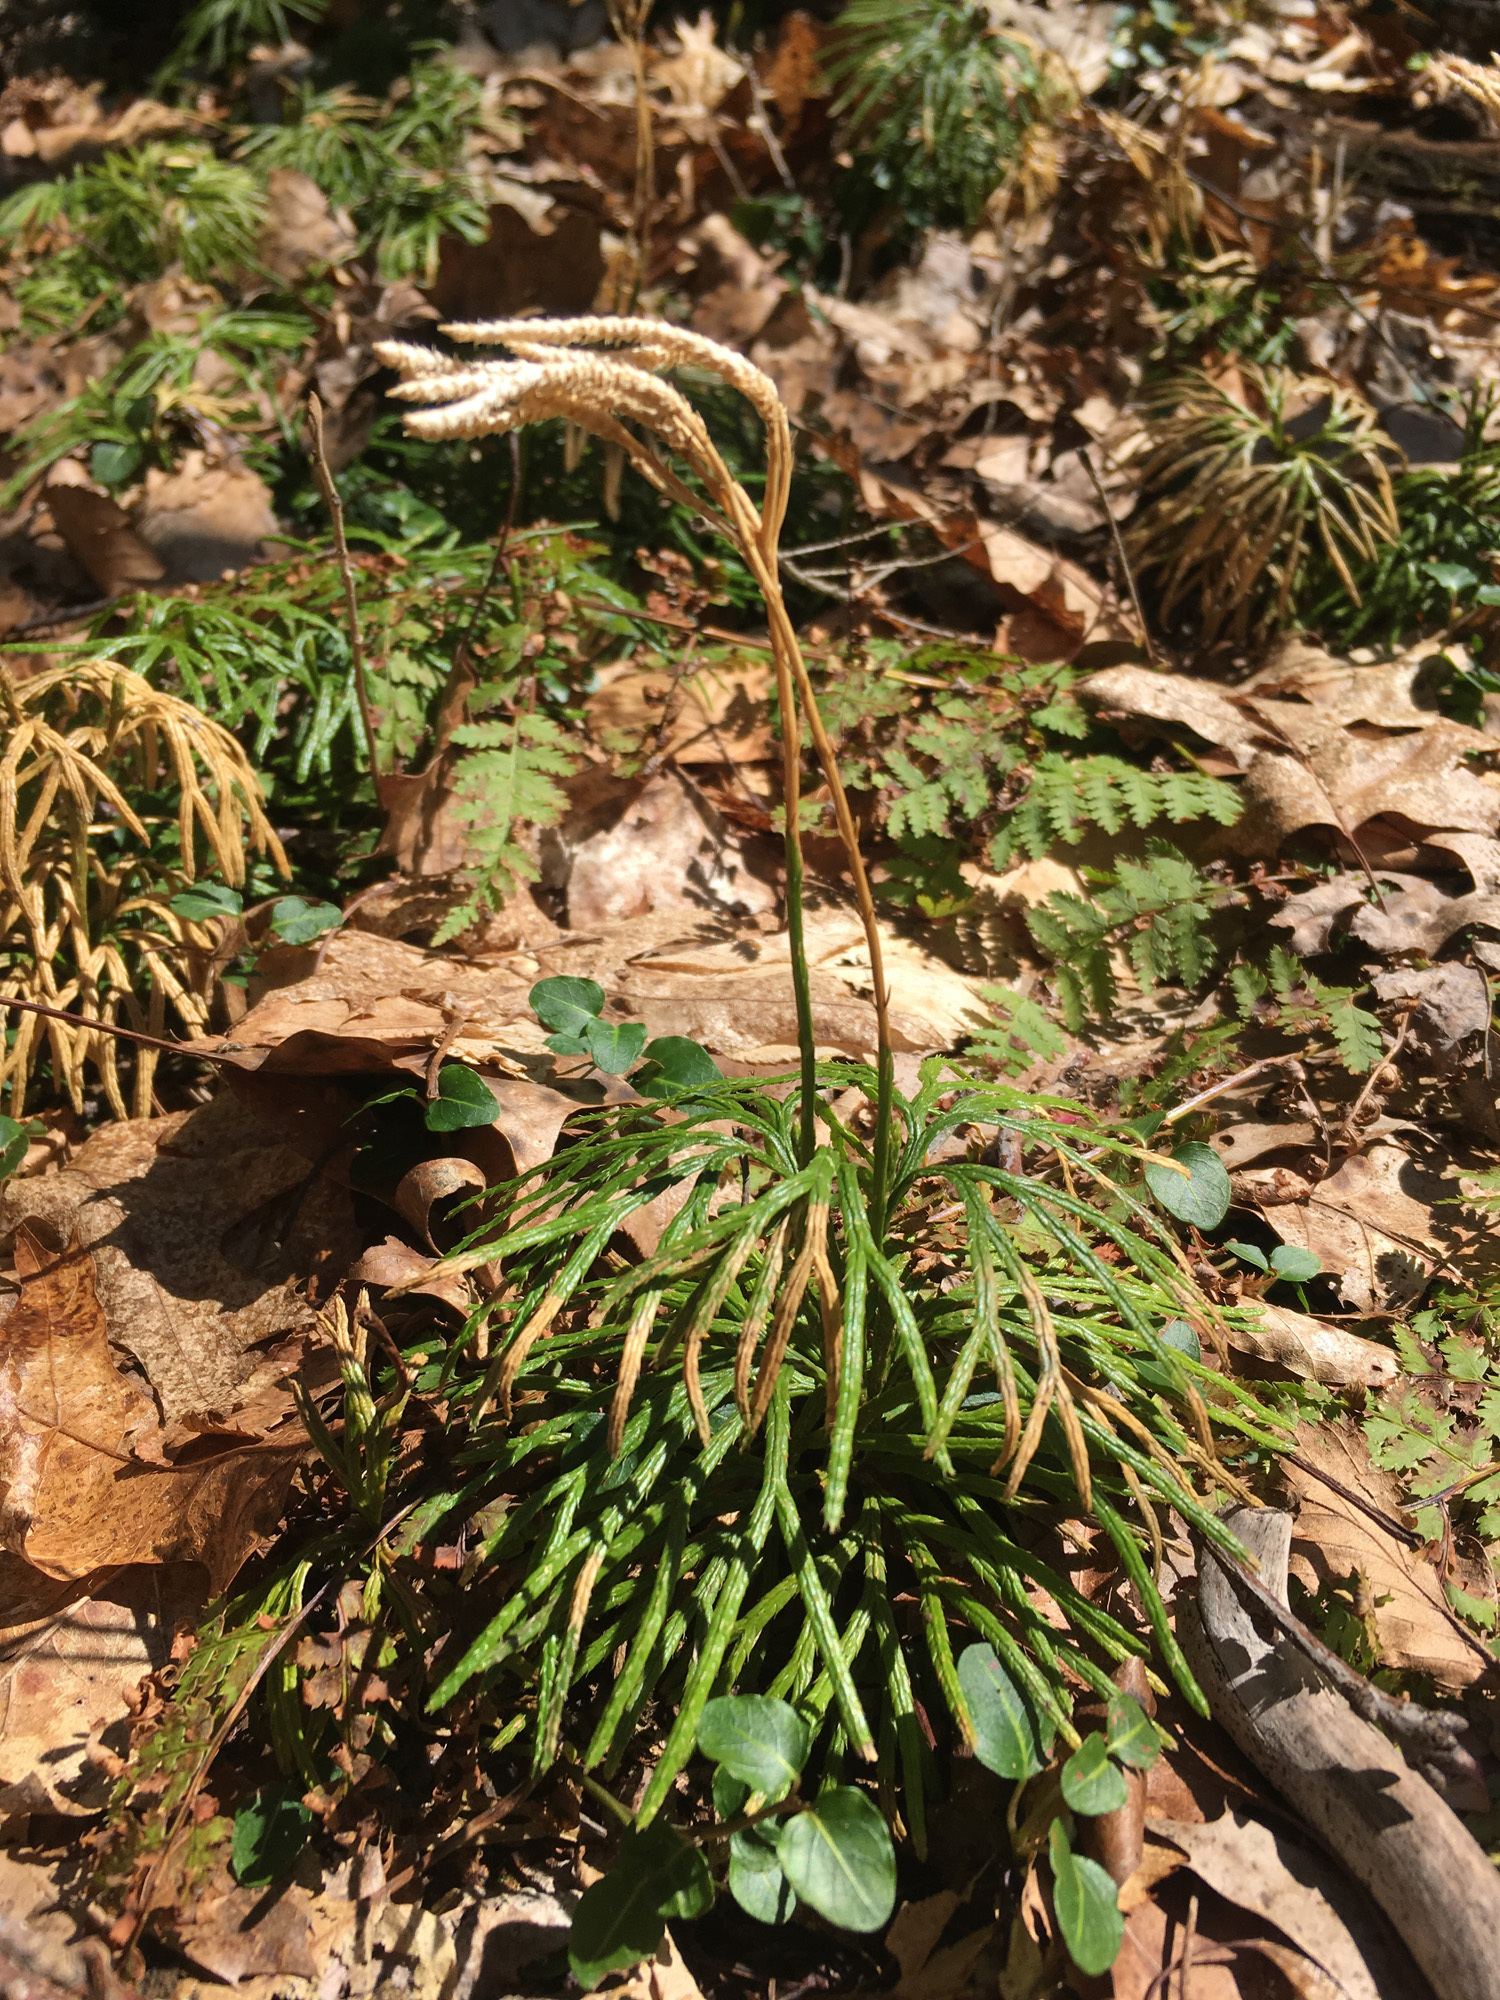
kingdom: Plantae
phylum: Tracheophyta
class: Lycopodiopsida
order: Lycopodiales
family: Lycopodiaceae
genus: Diphasiastrum
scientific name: Diphasiastrum digitatum
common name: Southern running-pine
